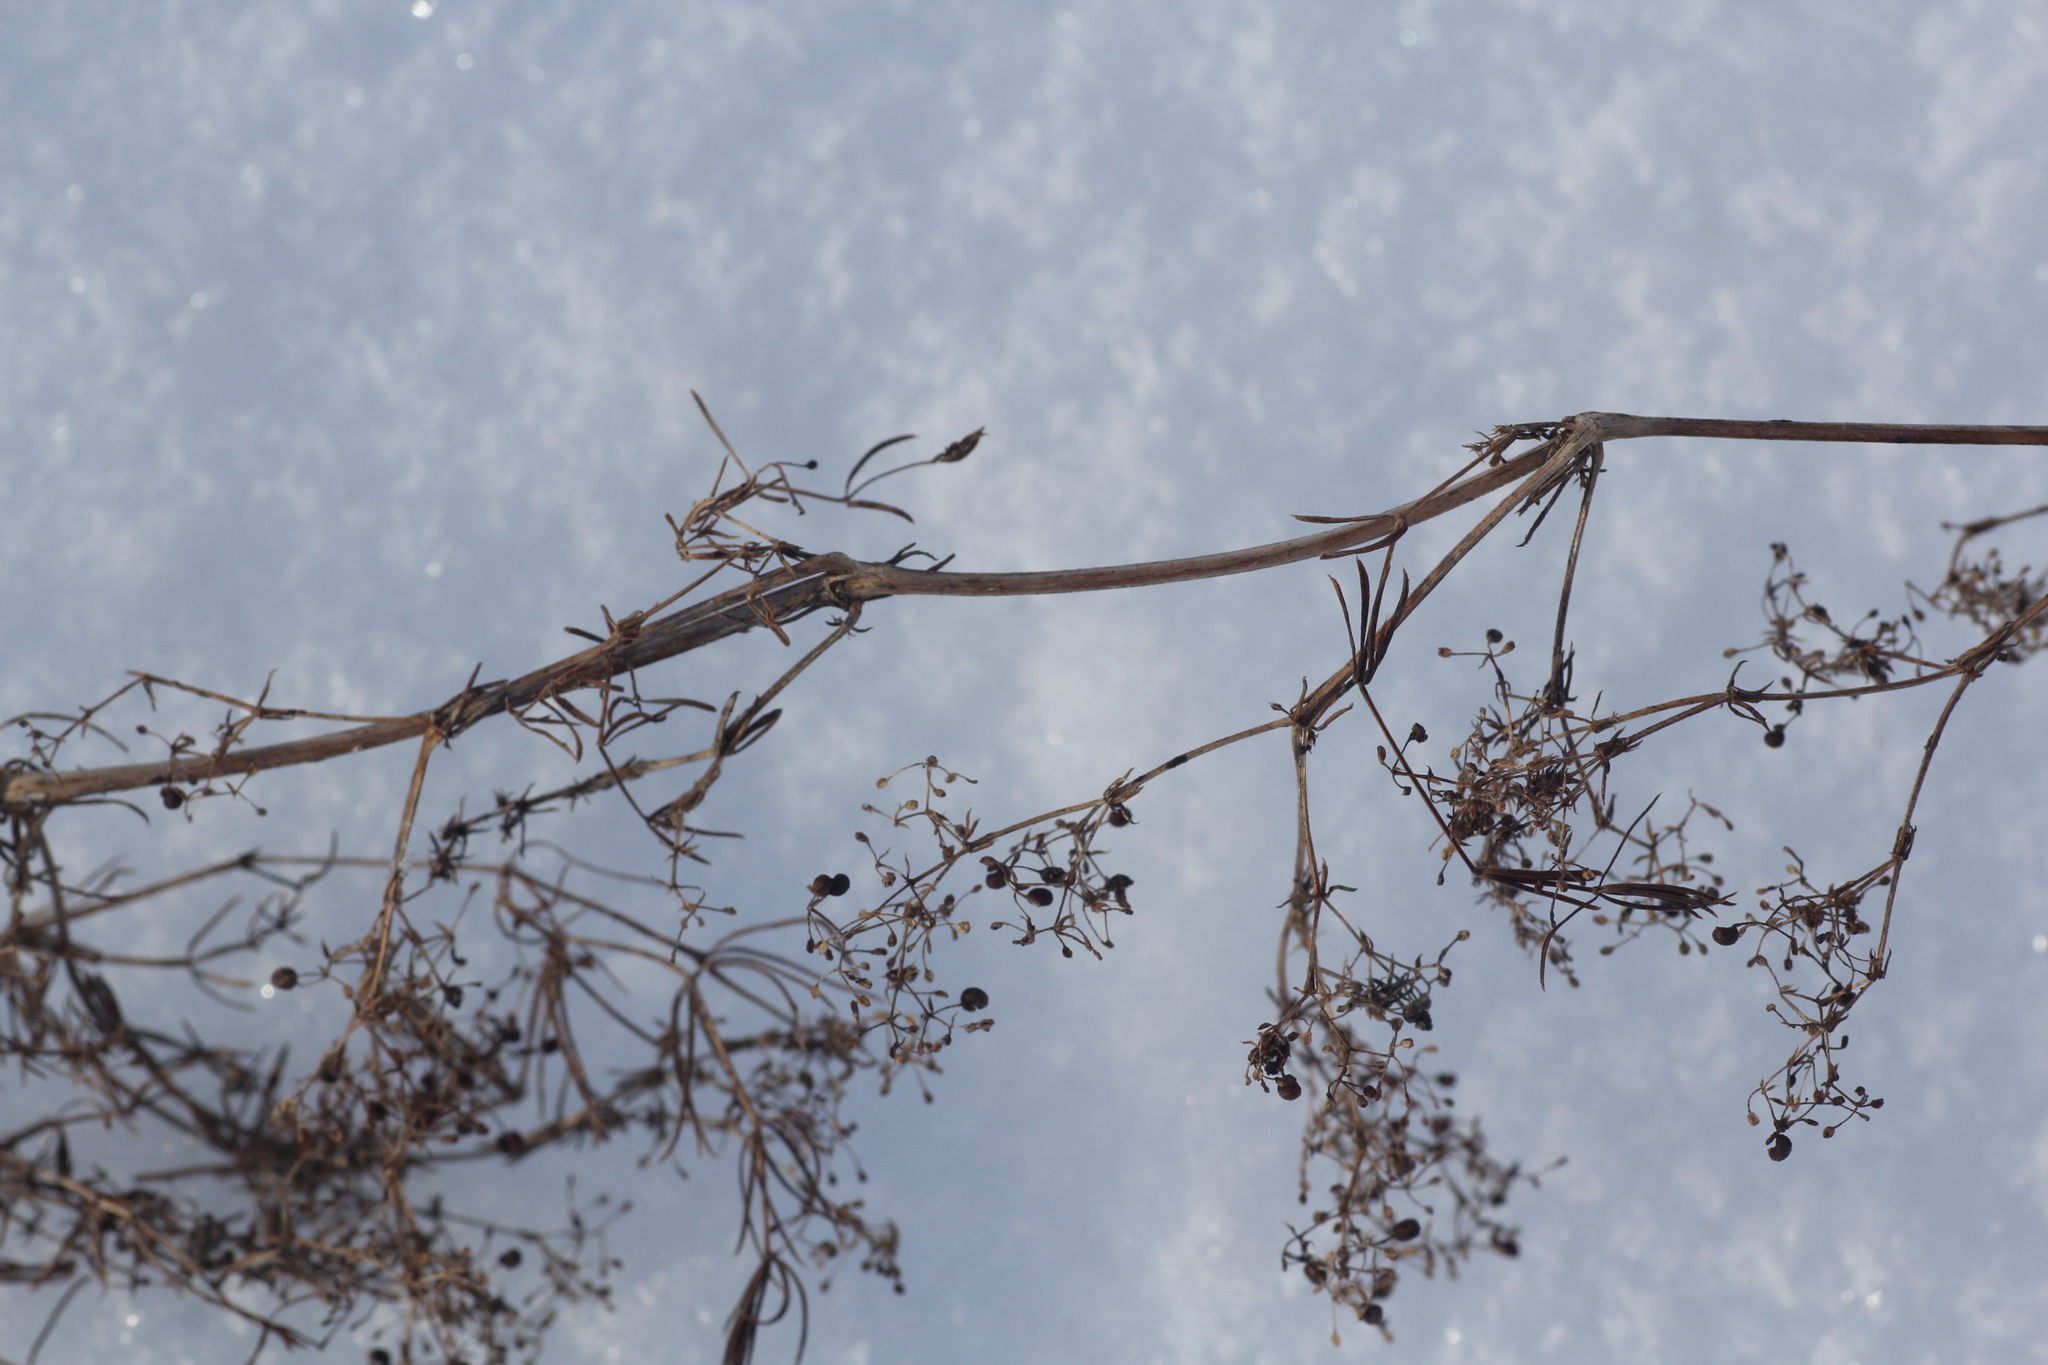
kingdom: Plantae
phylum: Tracheophyta
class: Magnoliopsida
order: Gentianales
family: Rubiaceae
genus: Galium
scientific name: Galium verum
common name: Lady's bedstraw
